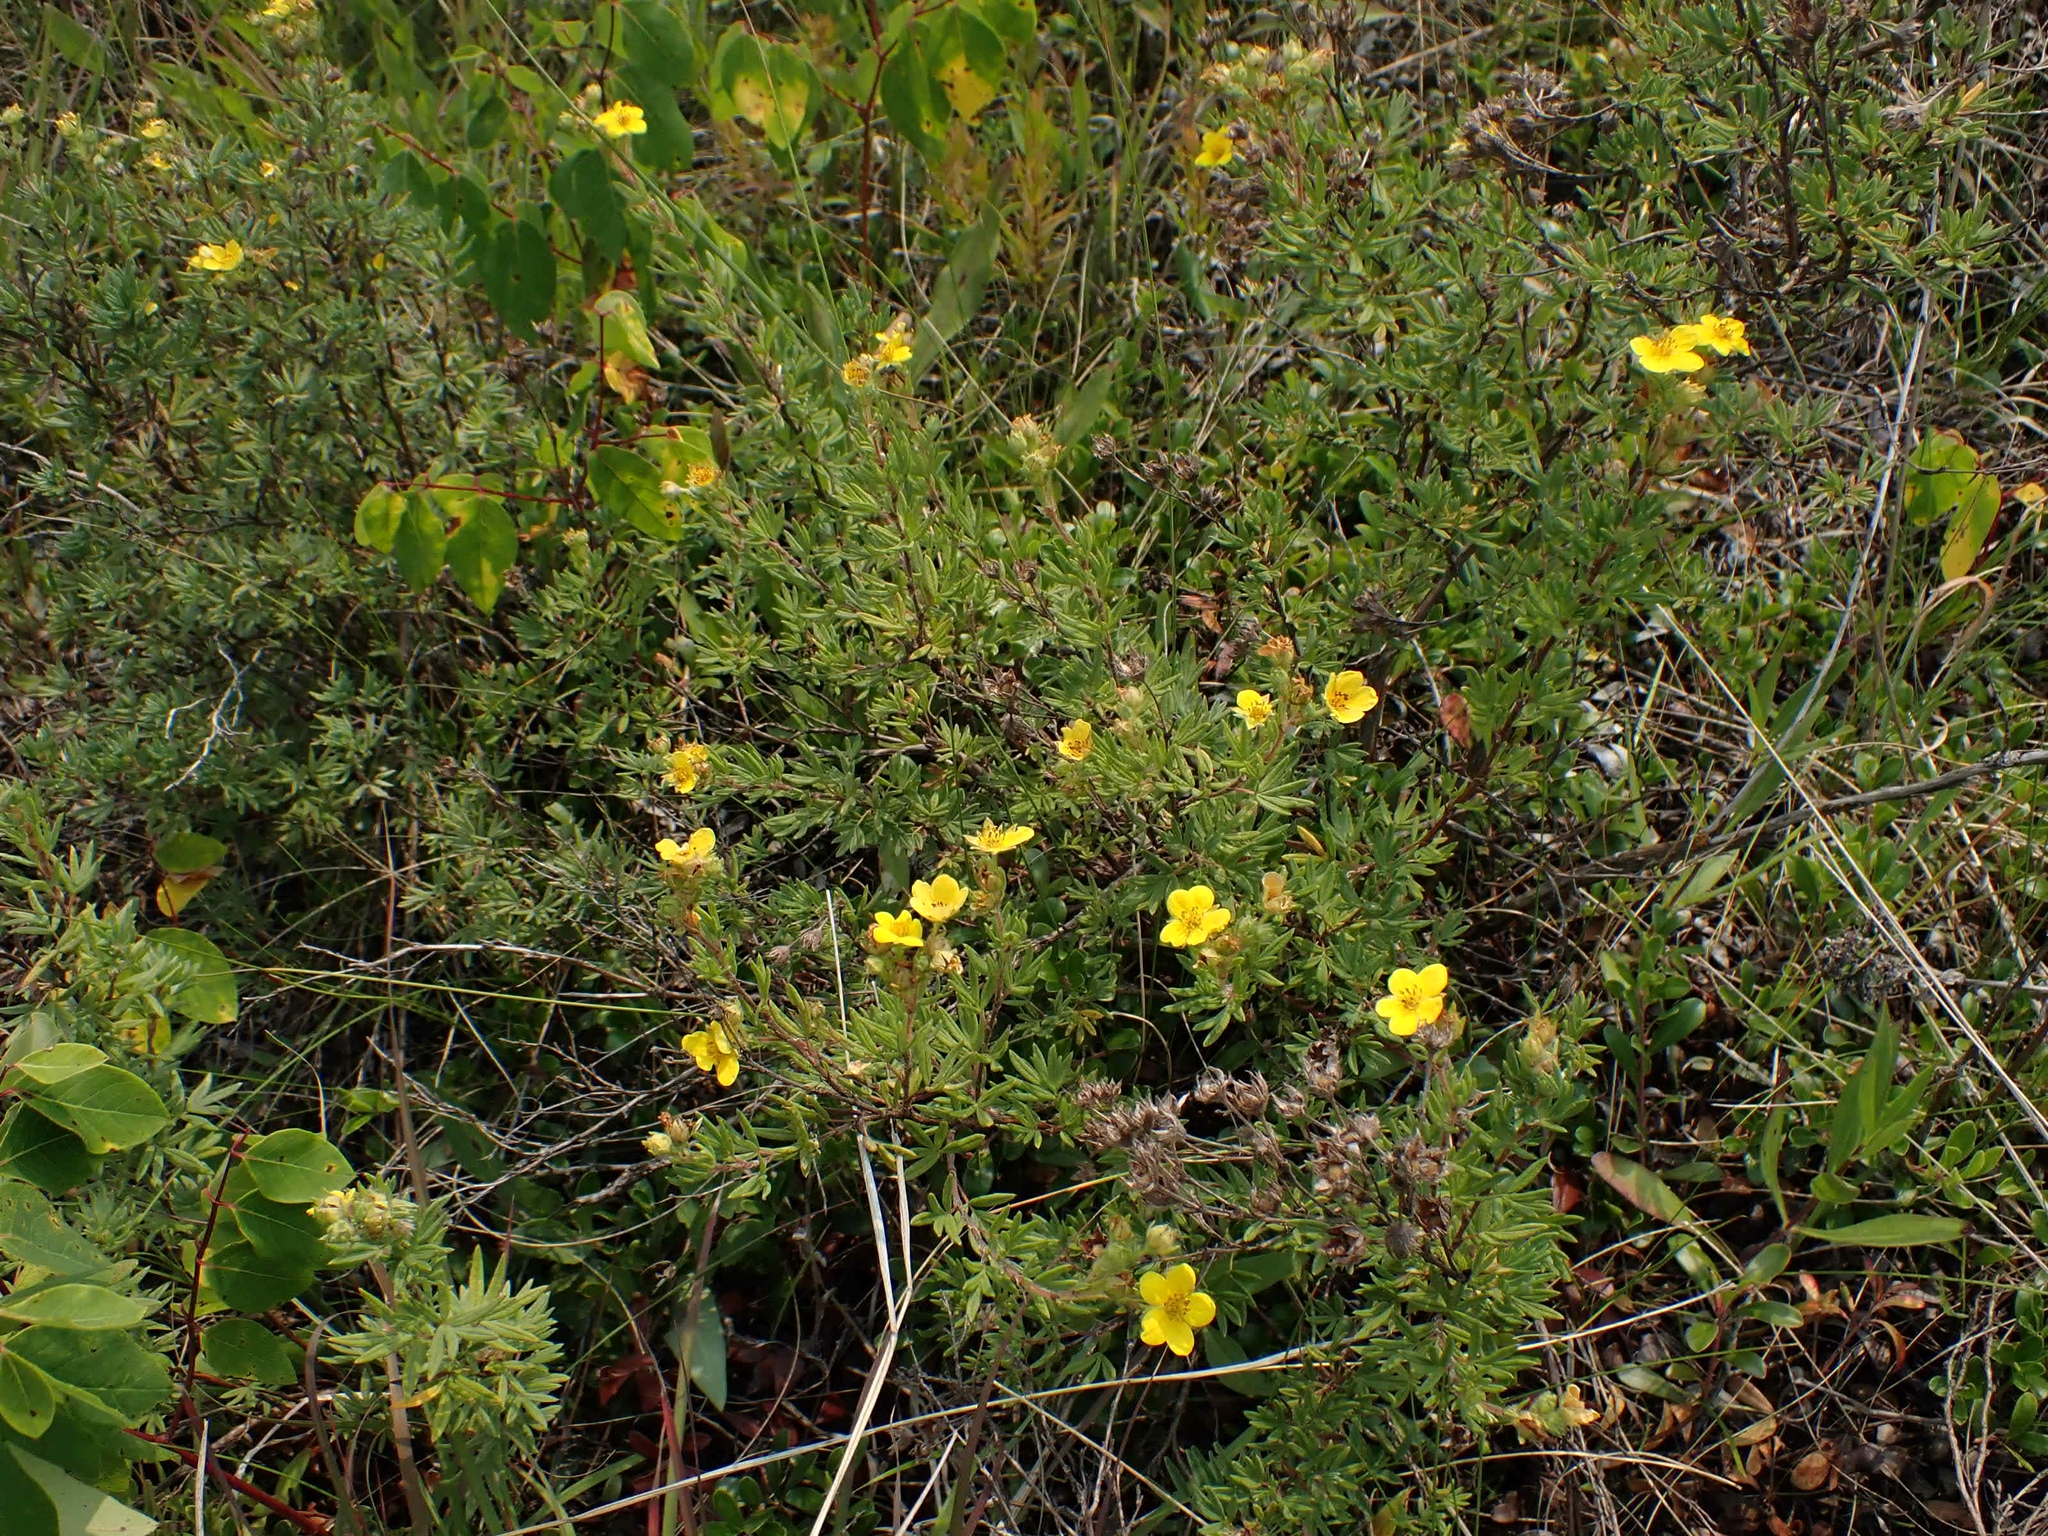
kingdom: Plantae
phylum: Tracheophyta
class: Magnoliopsida
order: Rosales
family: Rosaceae
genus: Dasiphora
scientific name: Dasiphora fruticosa
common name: Shrubby cinquefoil
